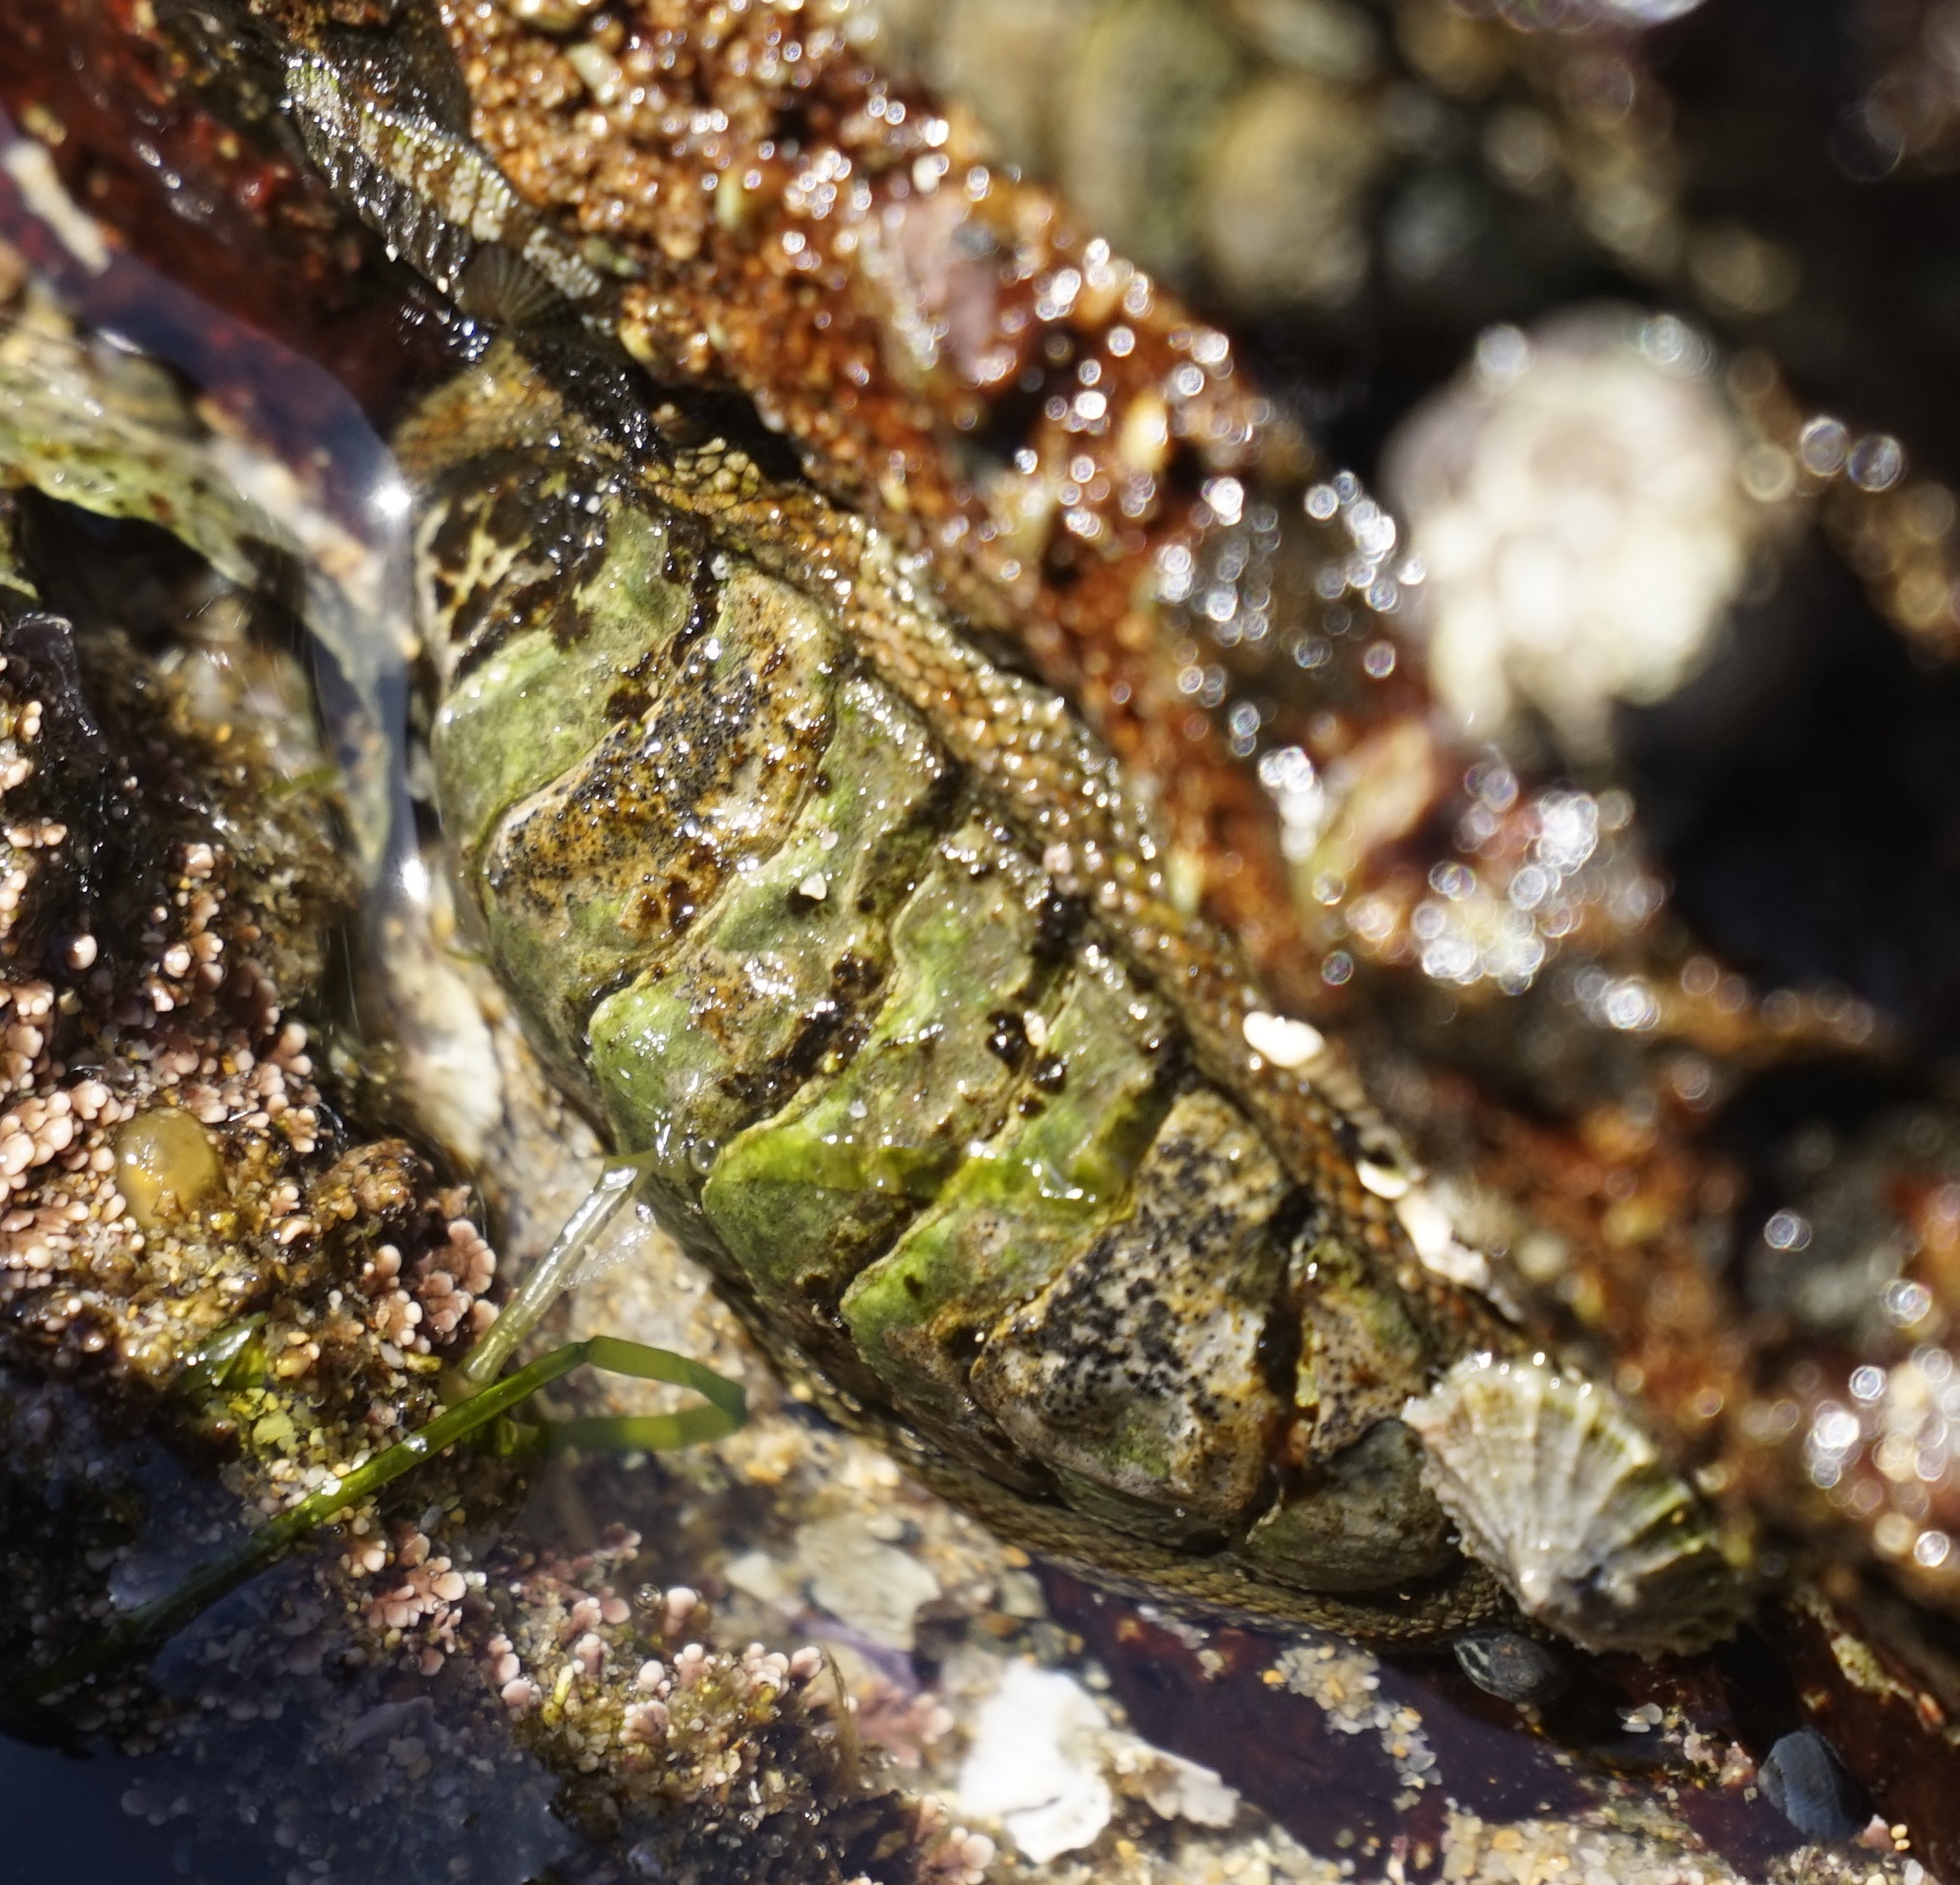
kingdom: Animalia
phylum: Mollusca
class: Polyplacophora
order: Chitonida
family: Chitonidae
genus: Sypharochiton
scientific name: Sypharochiton pelliserpentis
